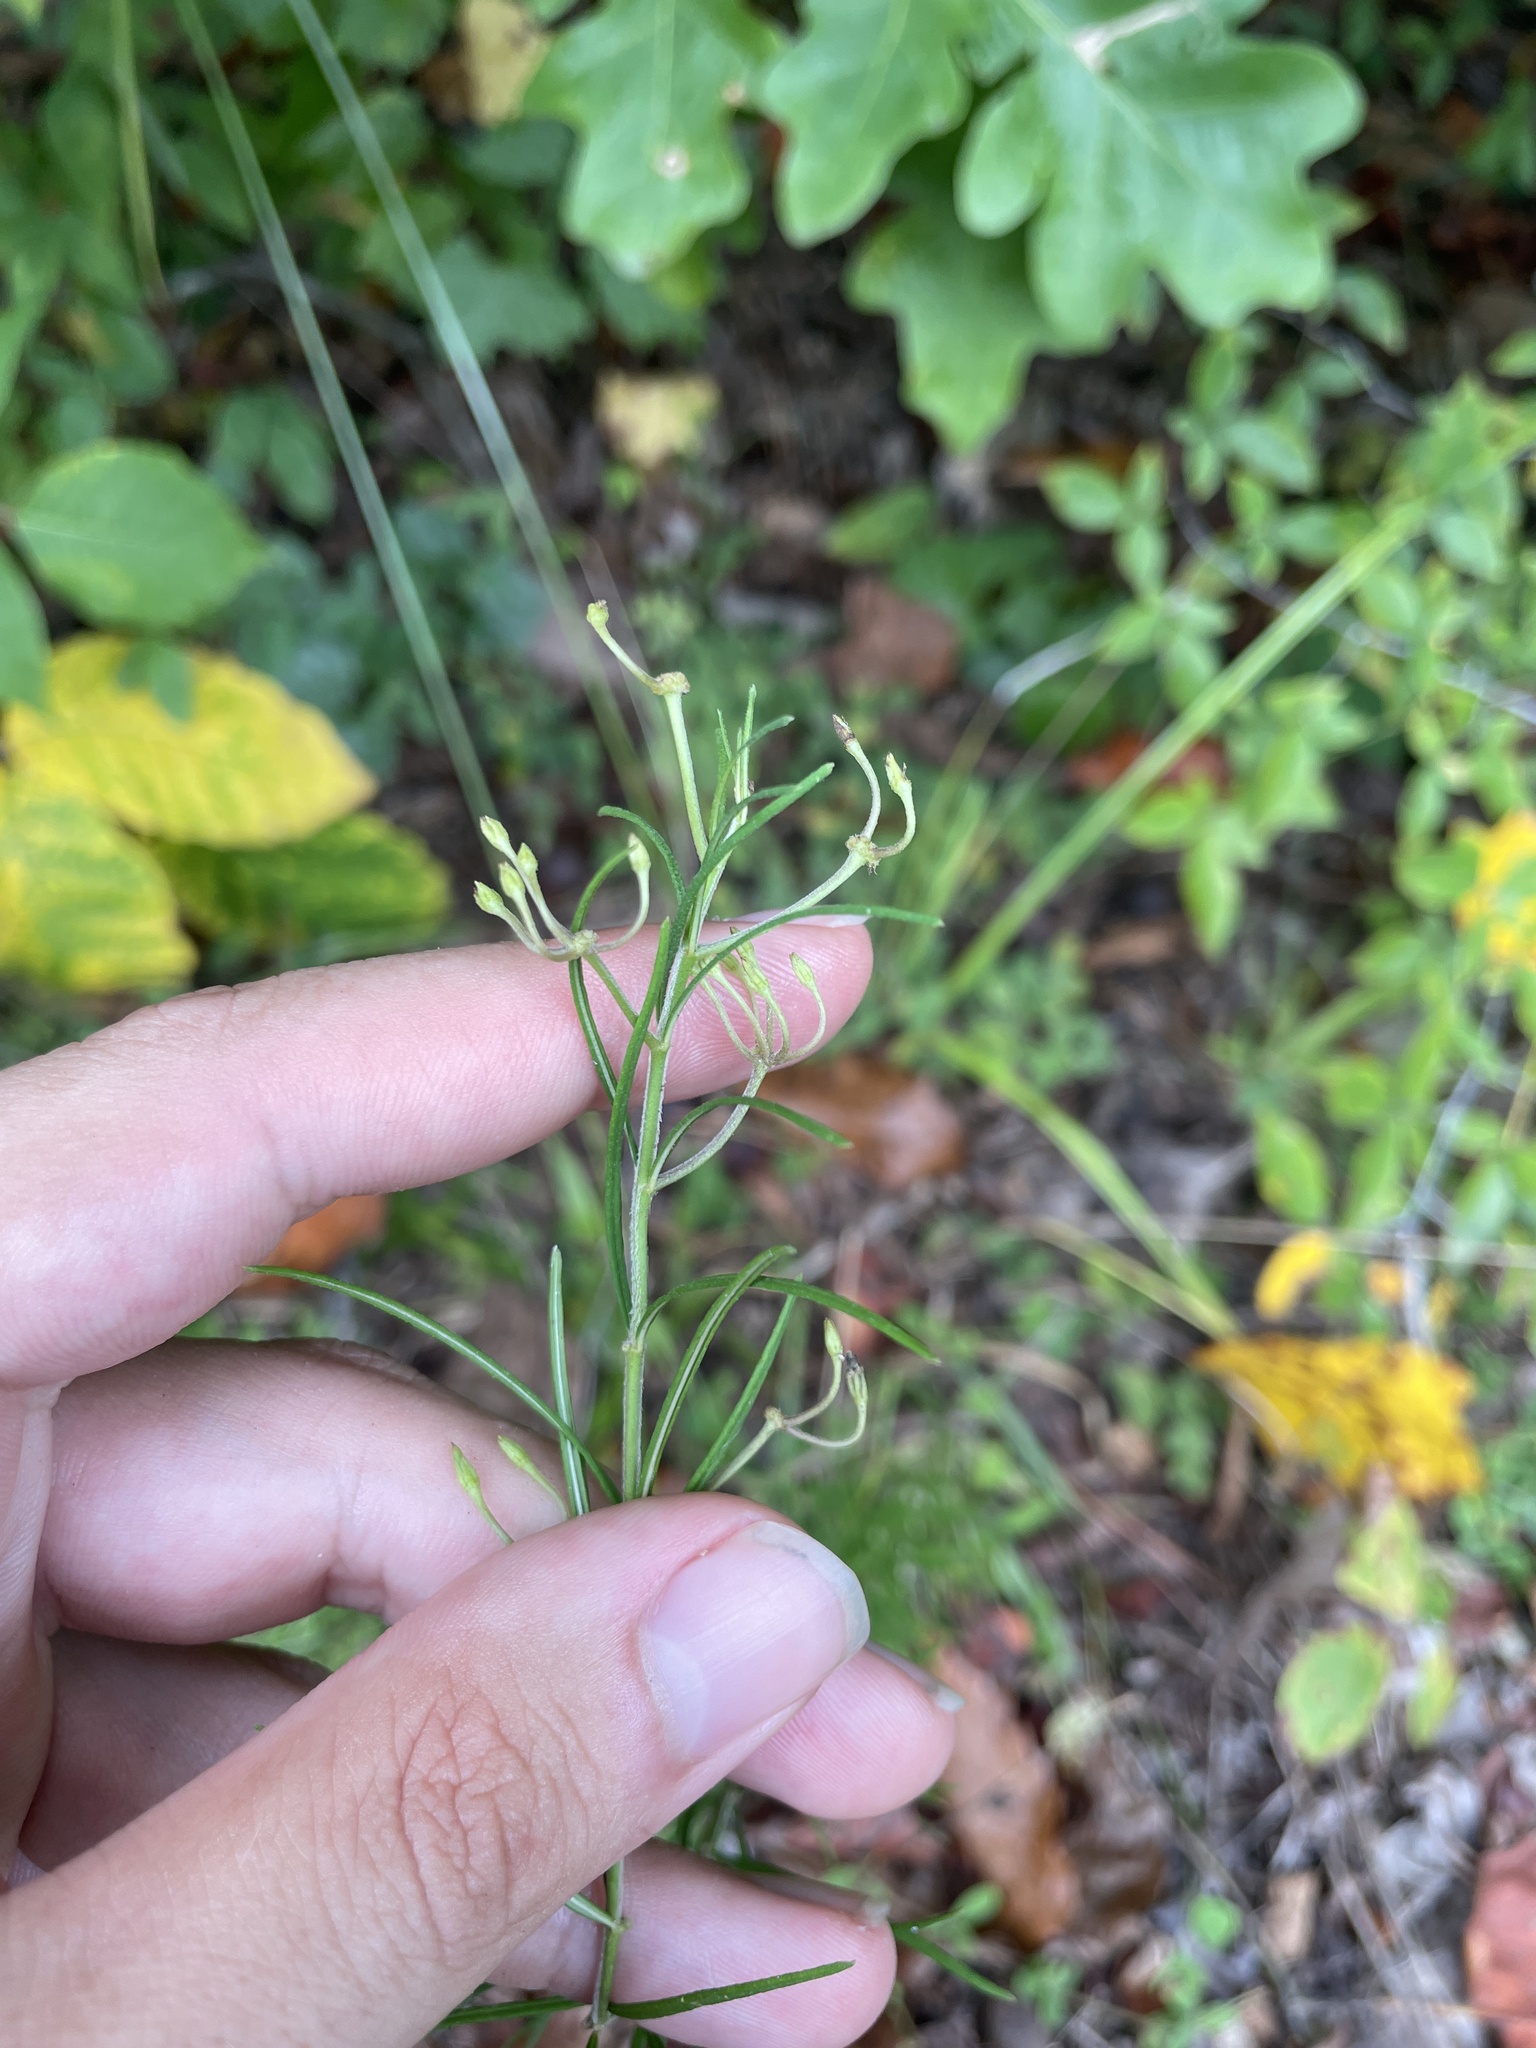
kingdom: Plantae
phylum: Tracheophyta
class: Magnoliopsida
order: Gentianales
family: Apocynaceae
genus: Asclepias
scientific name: Asclepias verticillata
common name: Eastern whorled milkweed
